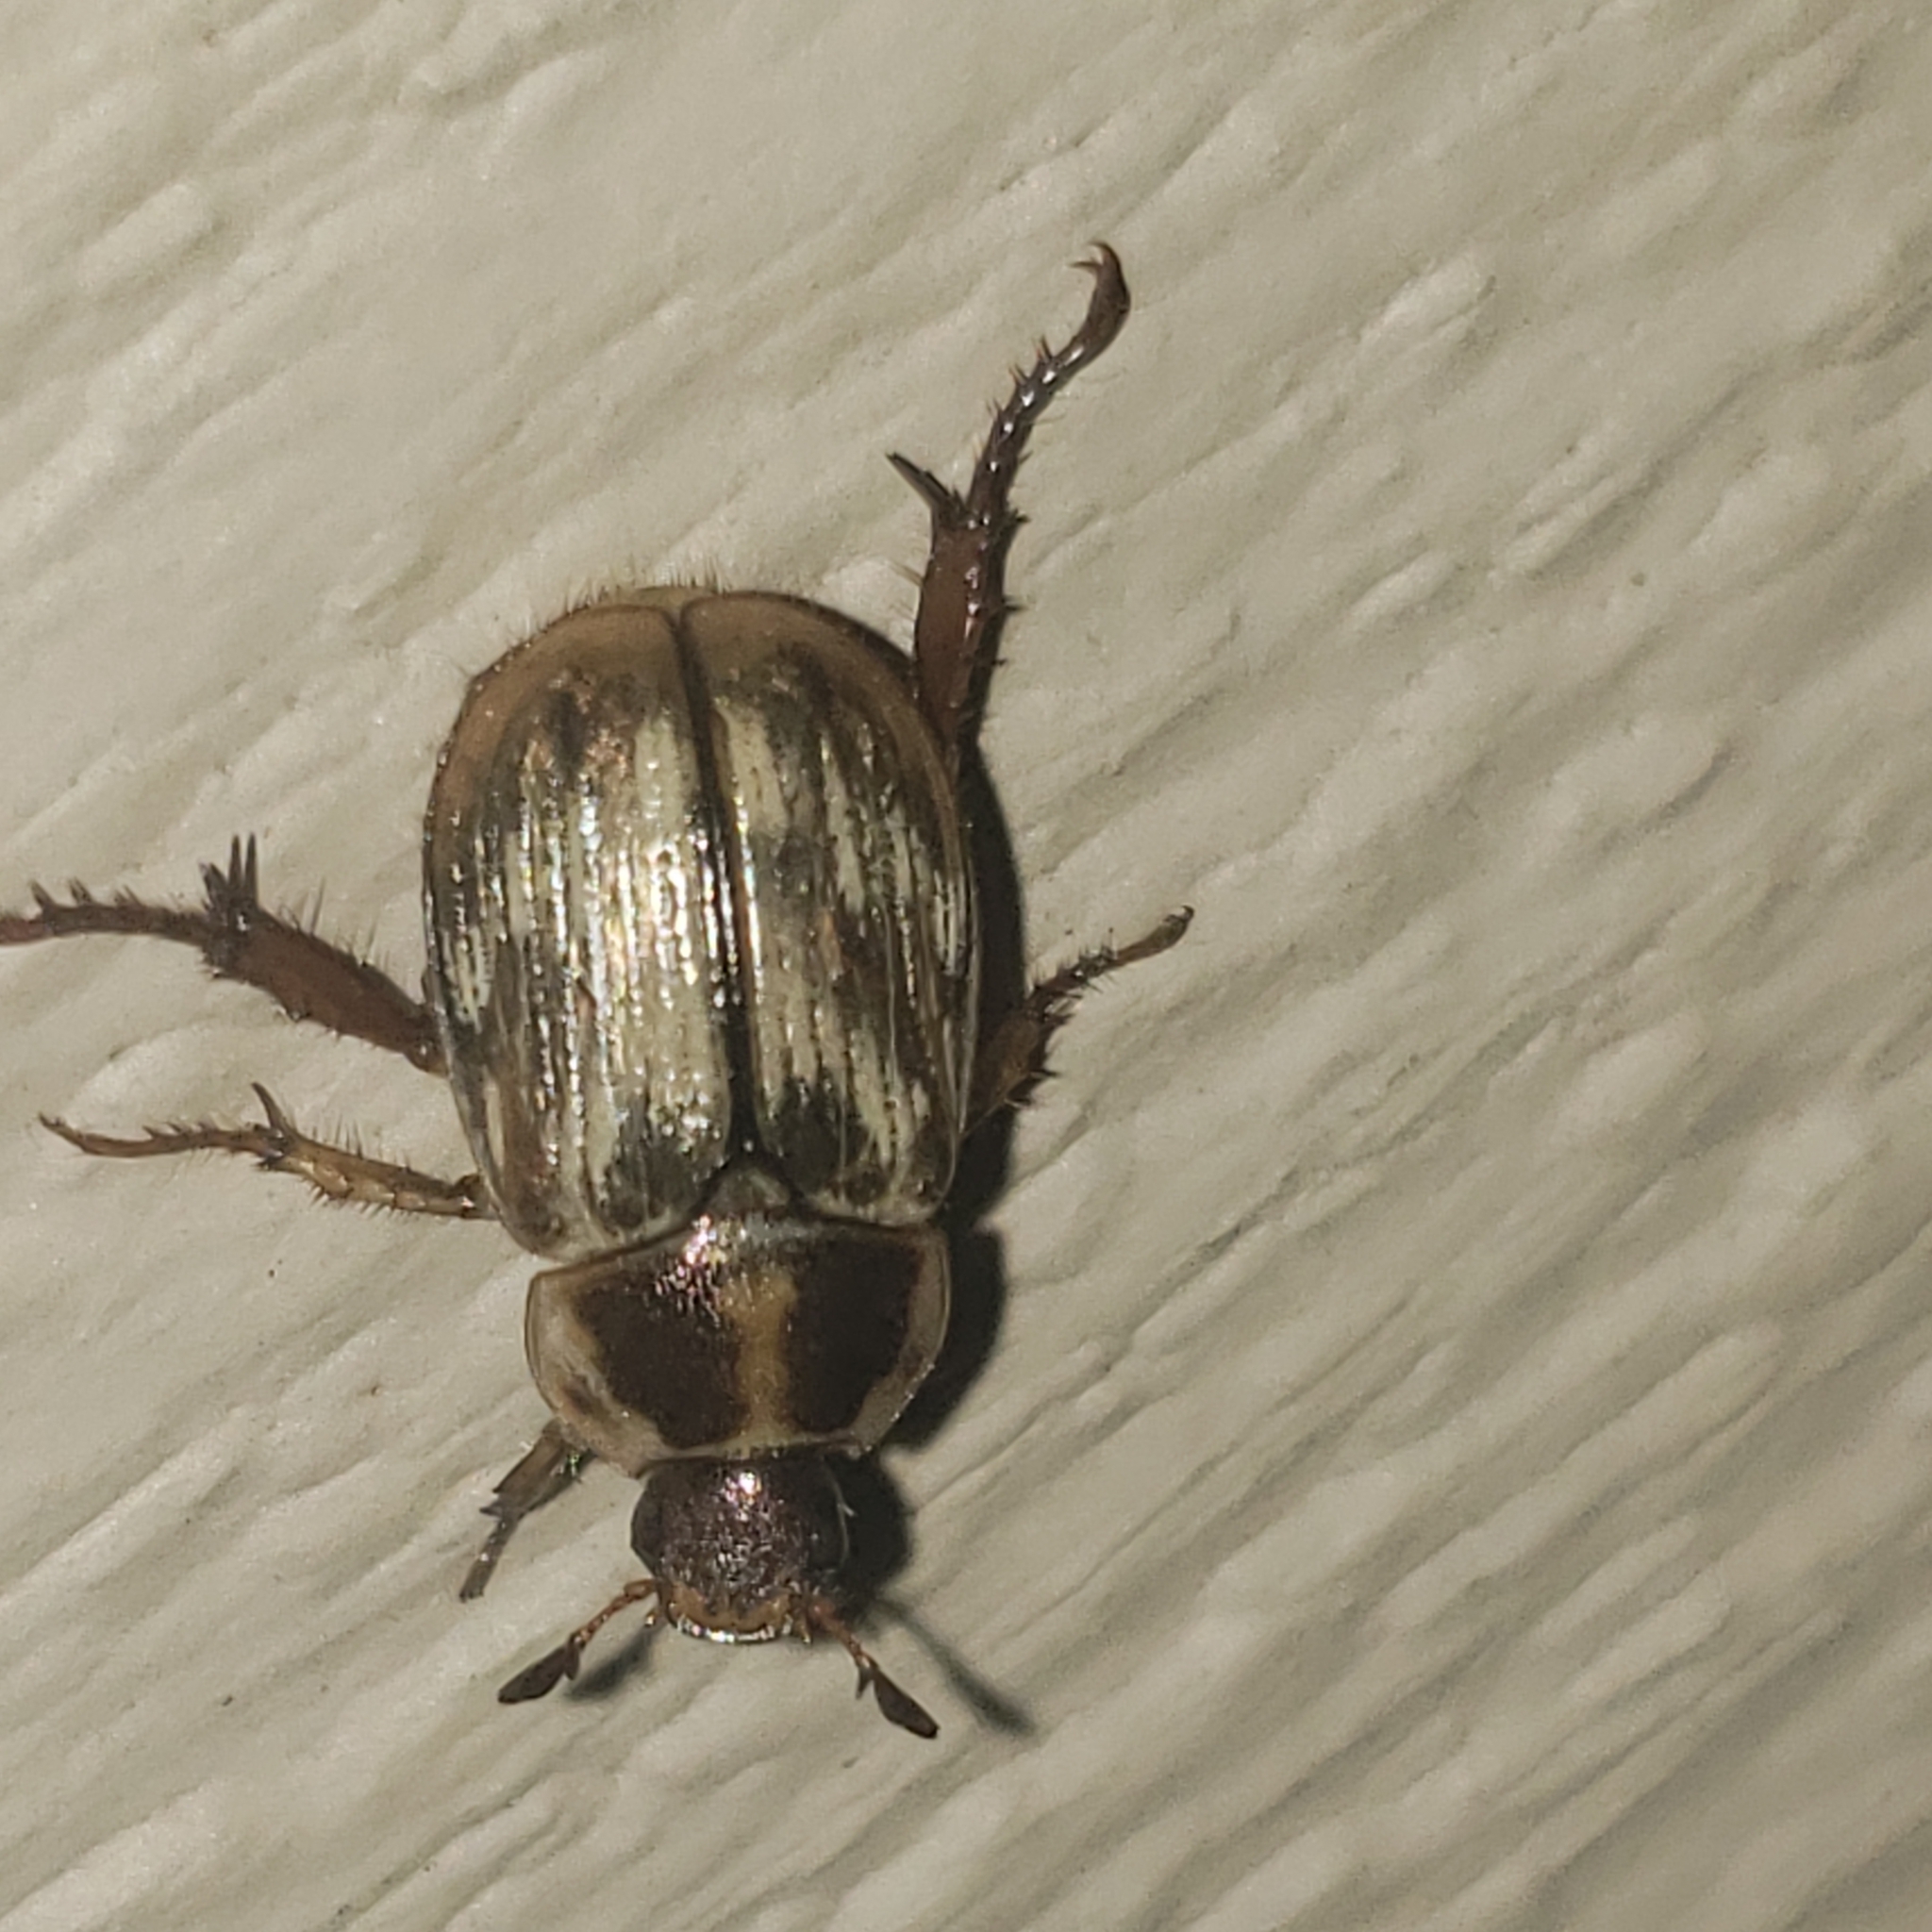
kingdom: Animalia
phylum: Arthropoda
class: Insecta
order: Coleoptera
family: Scarabaeidae
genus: Exomala
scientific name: Exomala orientalis
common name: Oriental beetle
